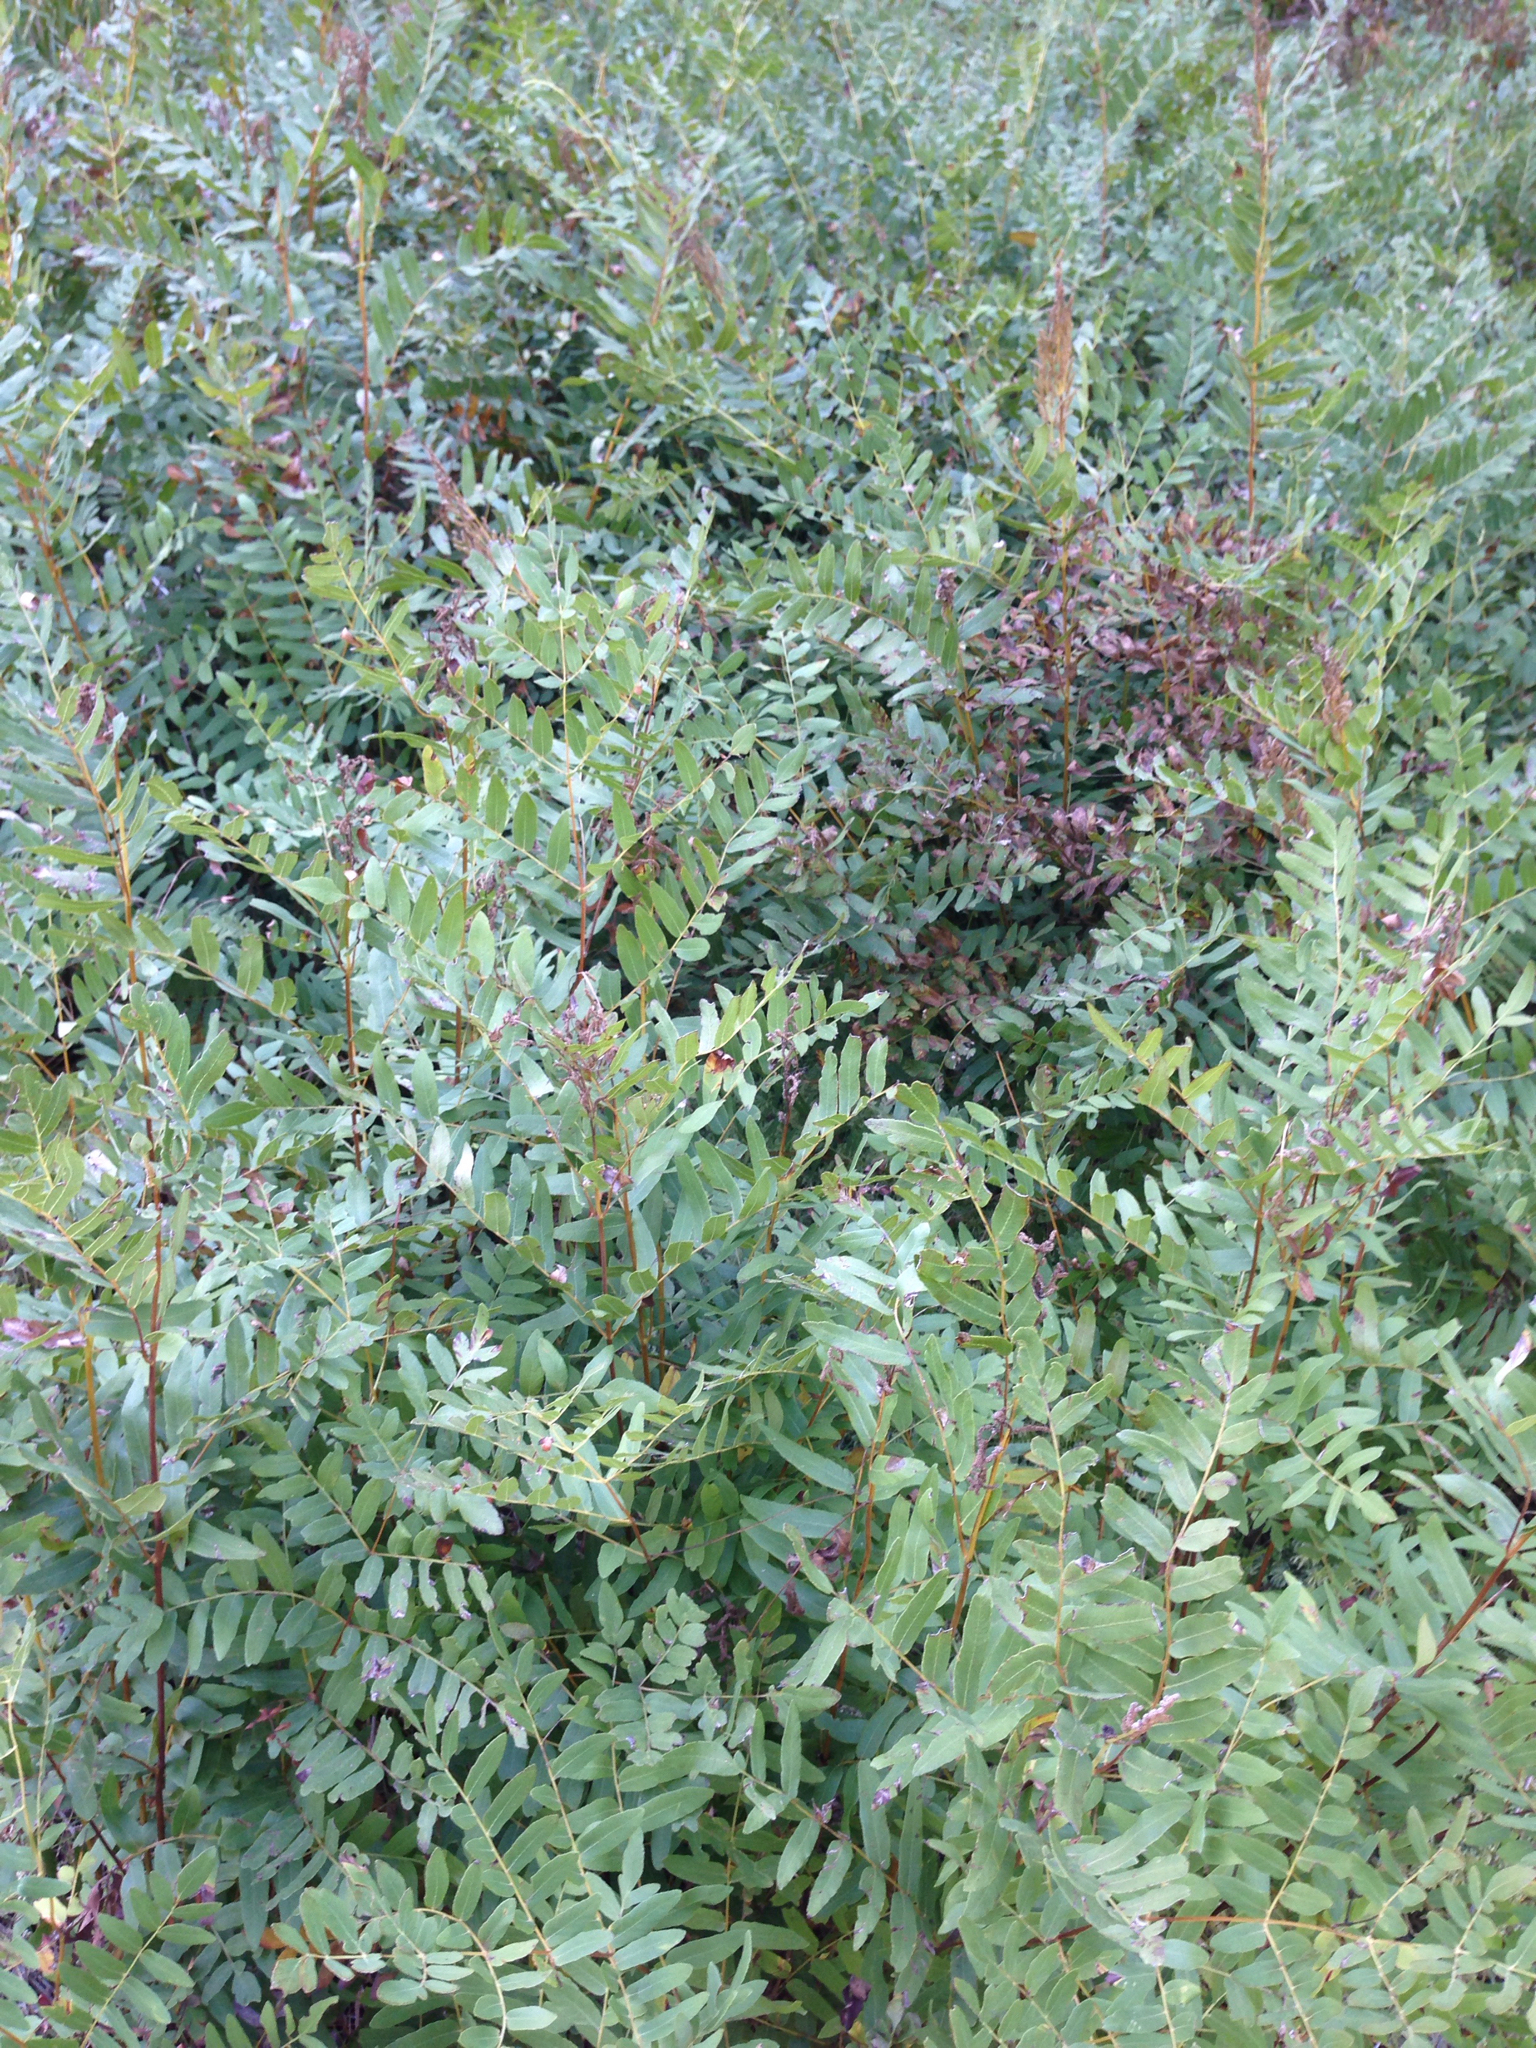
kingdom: Plantae
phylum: Tracheophyta
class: Polypodiopsida
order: Osmundales
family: Osmundaceae
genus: Osmunda
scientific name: Osmunda spectabilis
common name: American royal fern
